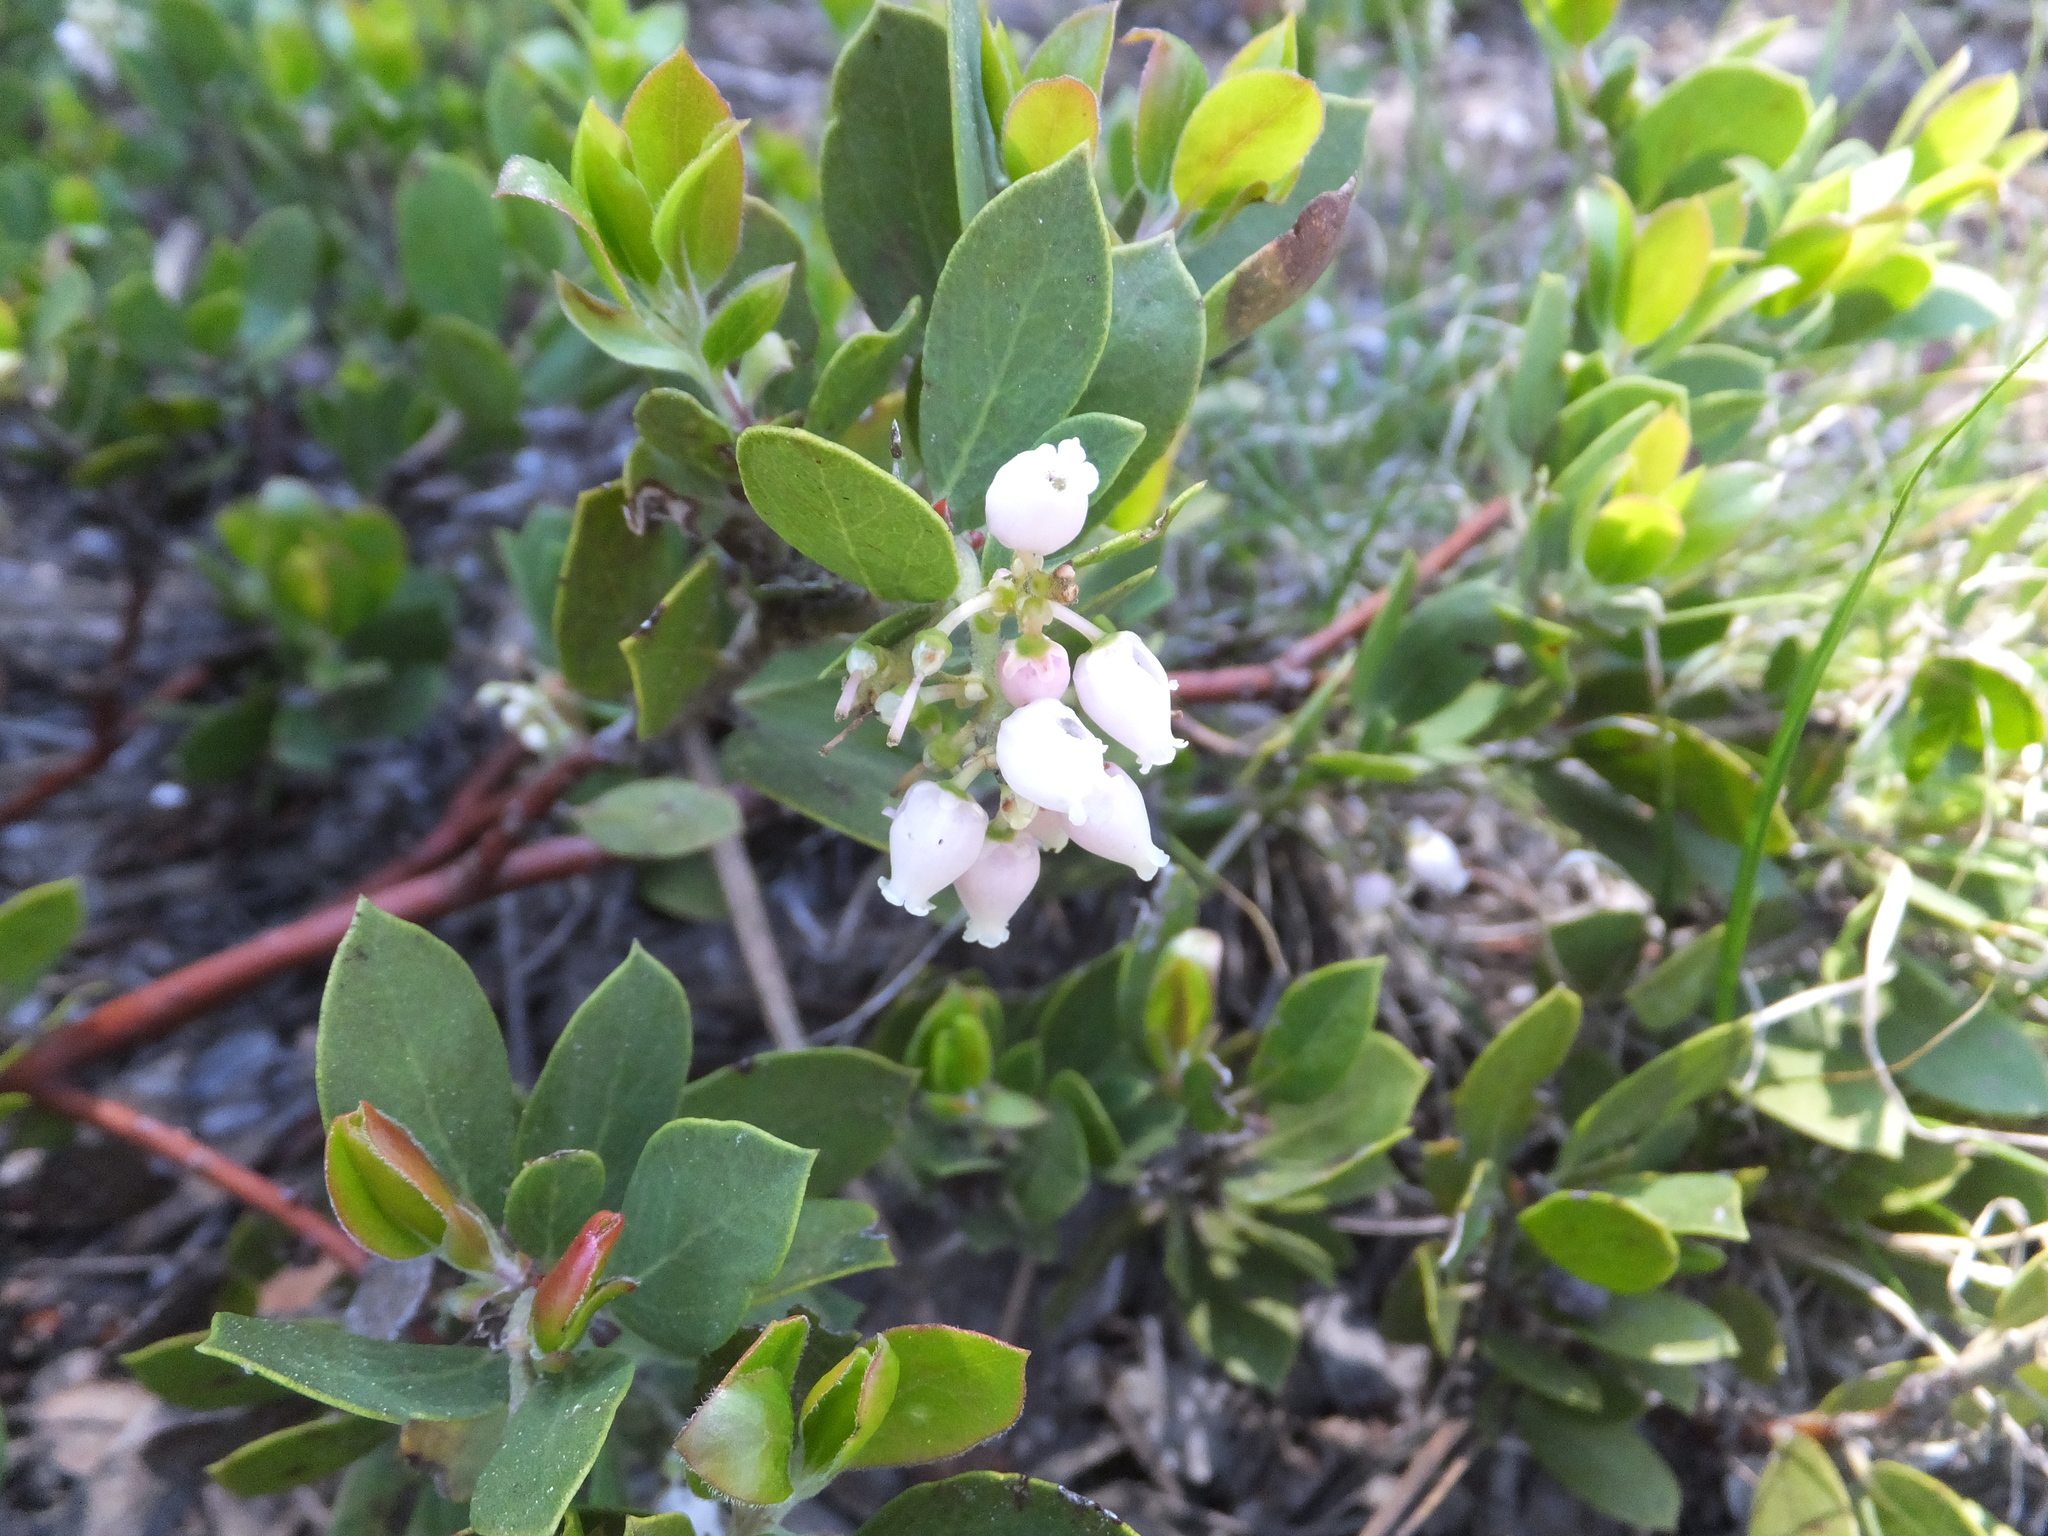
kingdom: Plantae
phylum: Tracheophyta
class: Magnoliopsida
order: Ericales
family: Ericaceae
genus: Arctostaphylos
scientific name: Arctostaphylos nevadensis
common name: Pinemat manzanita
